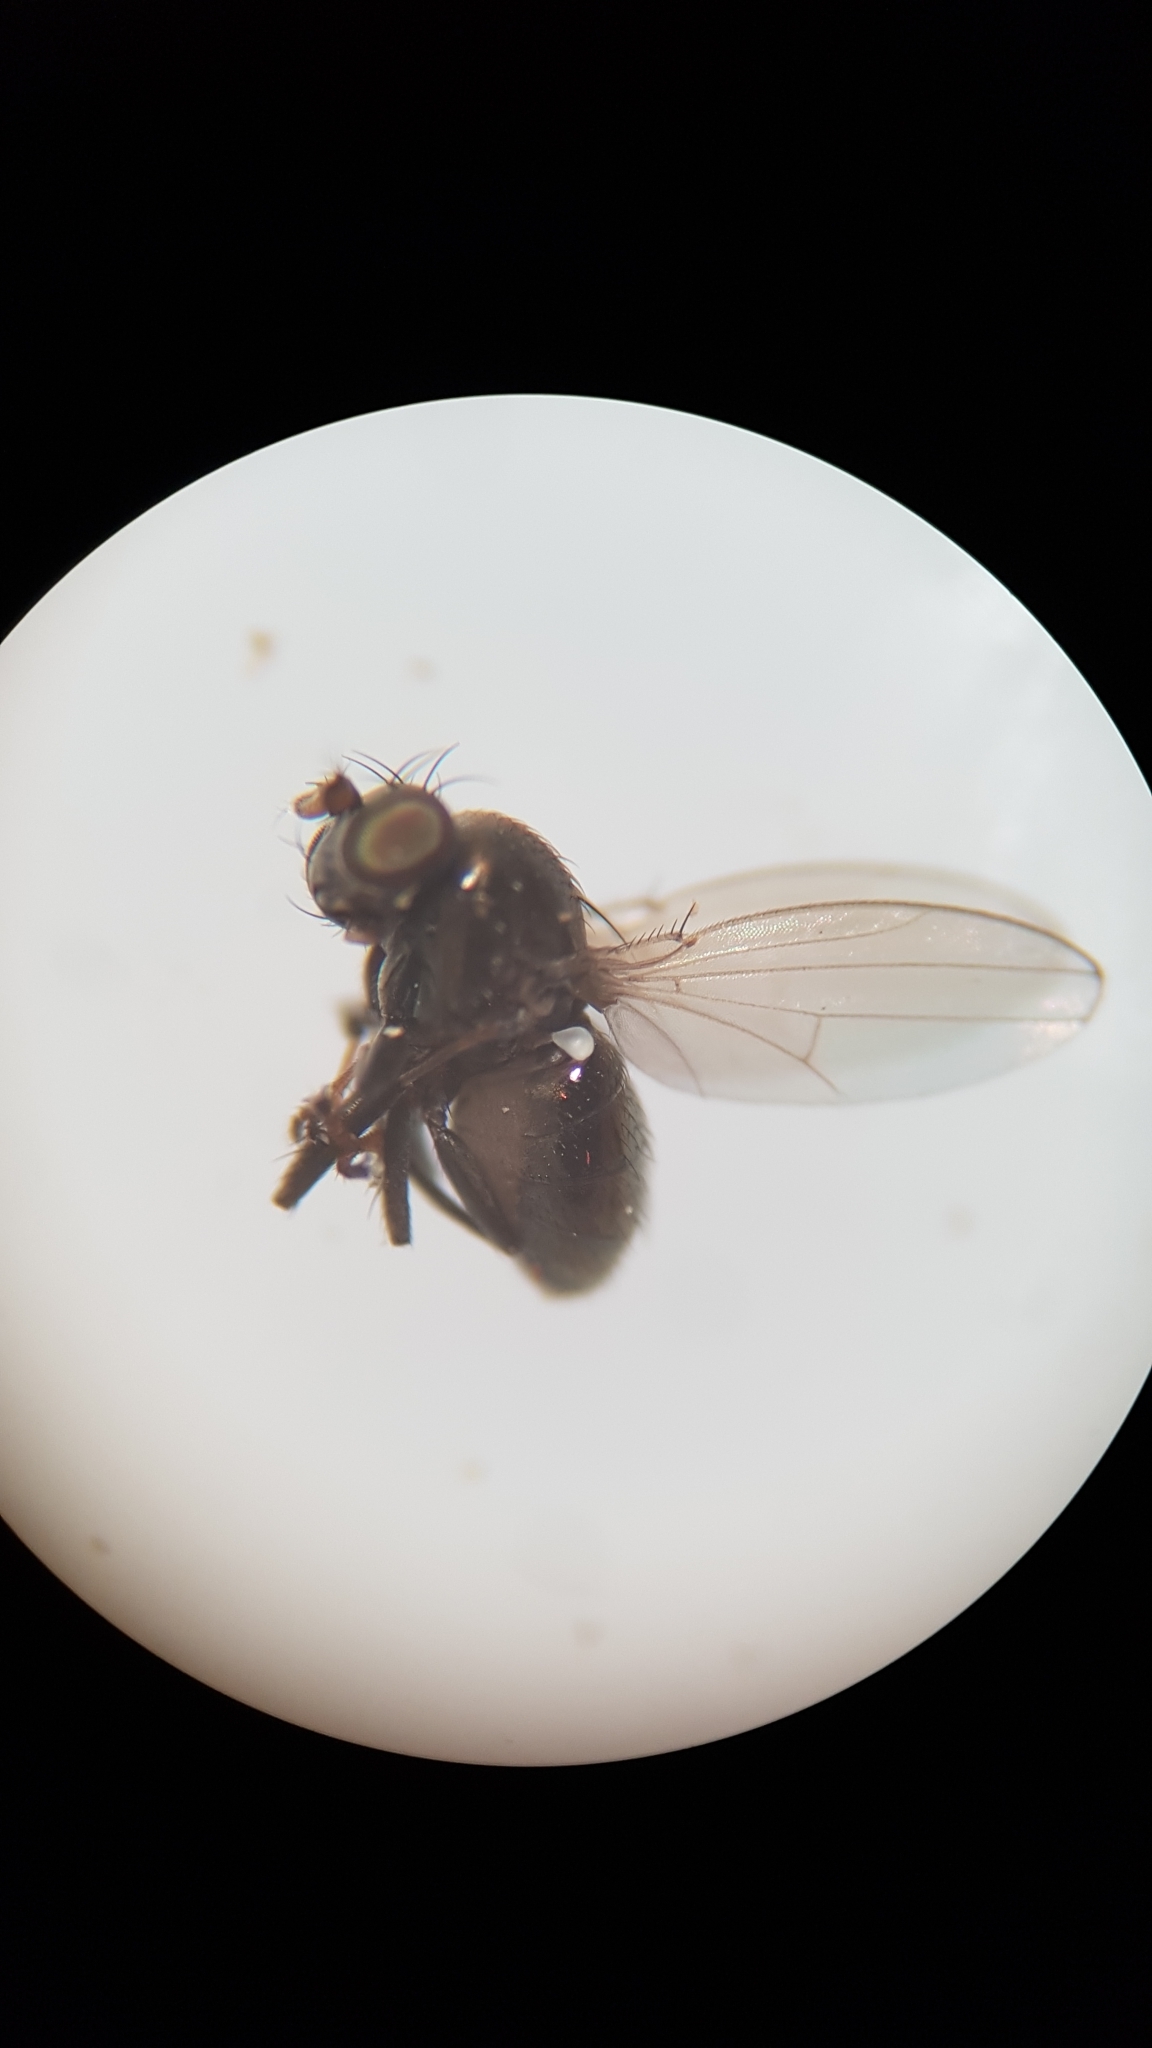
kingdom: Animalia
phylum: Arthropoda
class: Insecta
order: Diptera
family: Ephydridae
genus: Diasemocera
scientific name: Diasemocera metallica
